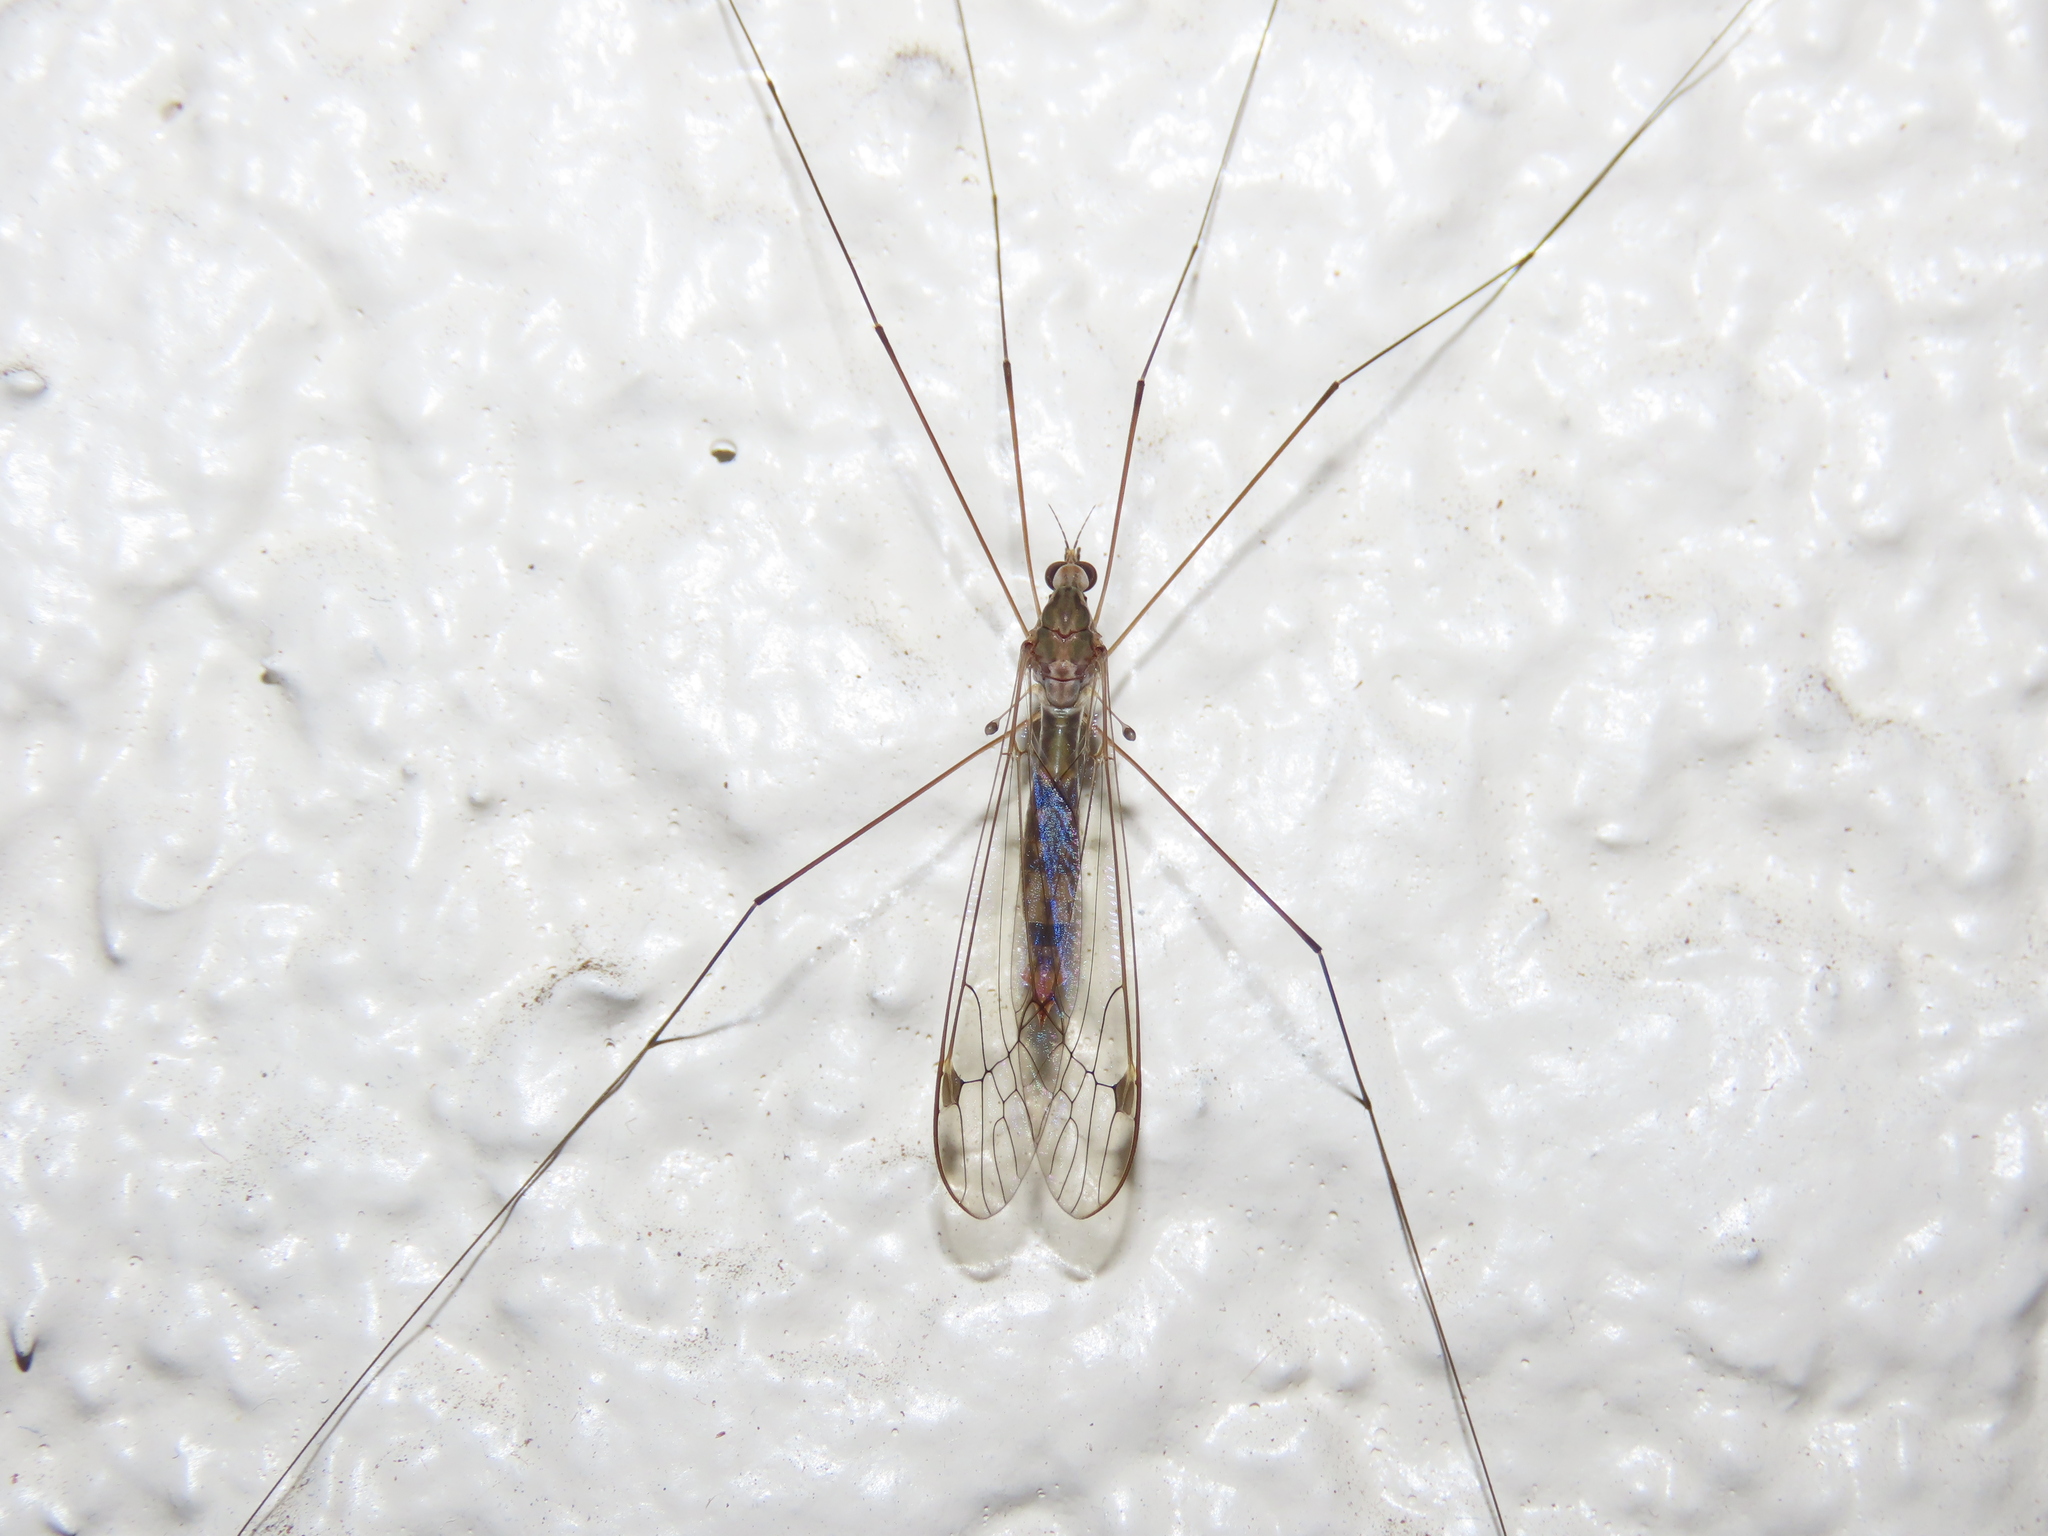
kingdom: Animalia
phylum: Arthropoda
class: Insecta
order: Diptera
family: Tipulidae
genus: Maekistocera
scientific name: Maekistocera longipennis
